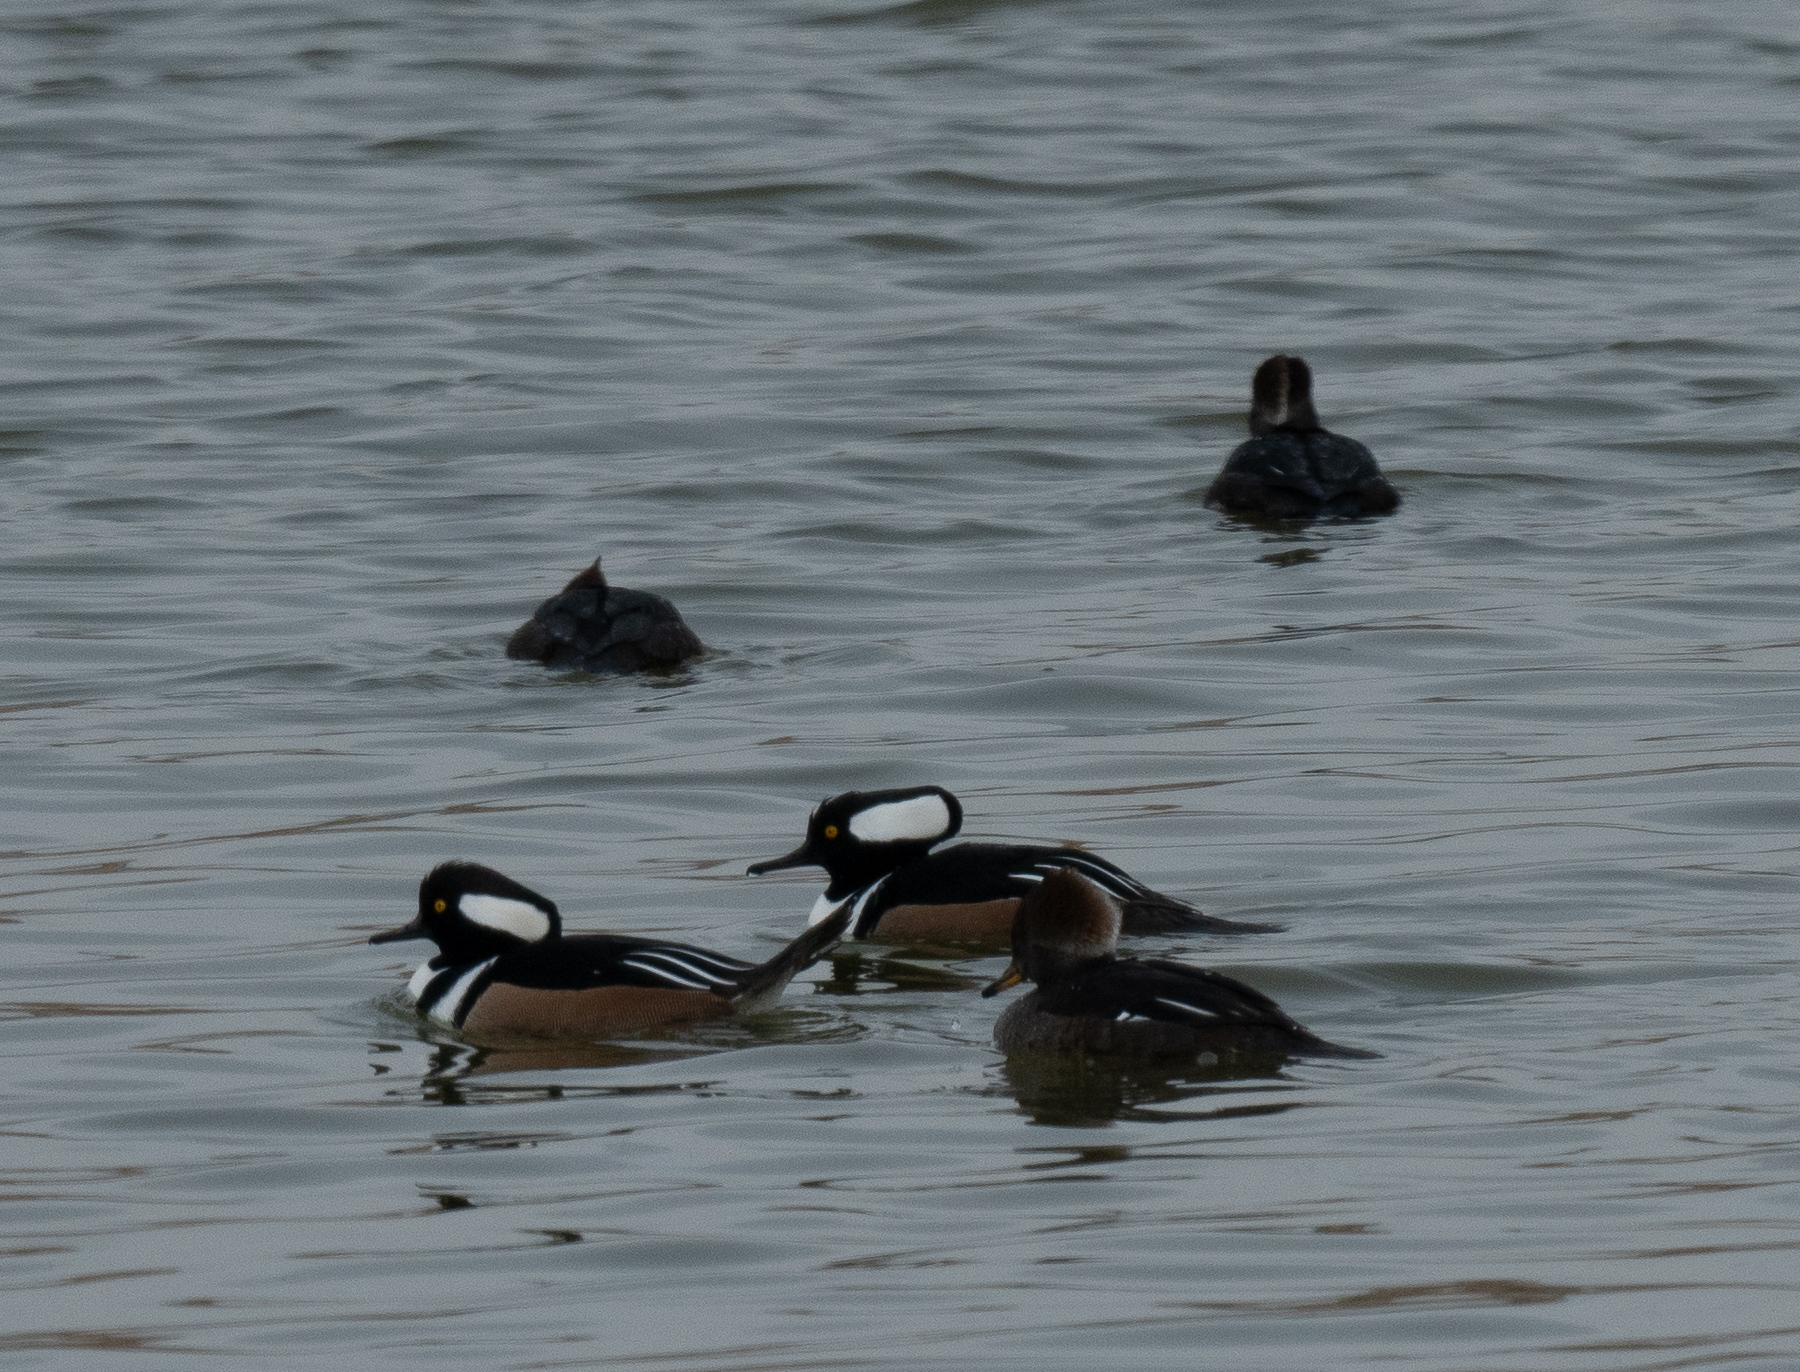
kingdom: Animalia
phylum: Chordata
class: Aves
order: Anseriformes
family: Anatidae
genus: Lophodytes
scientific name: Lophodytes cucullatus
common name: Hooded merganser
